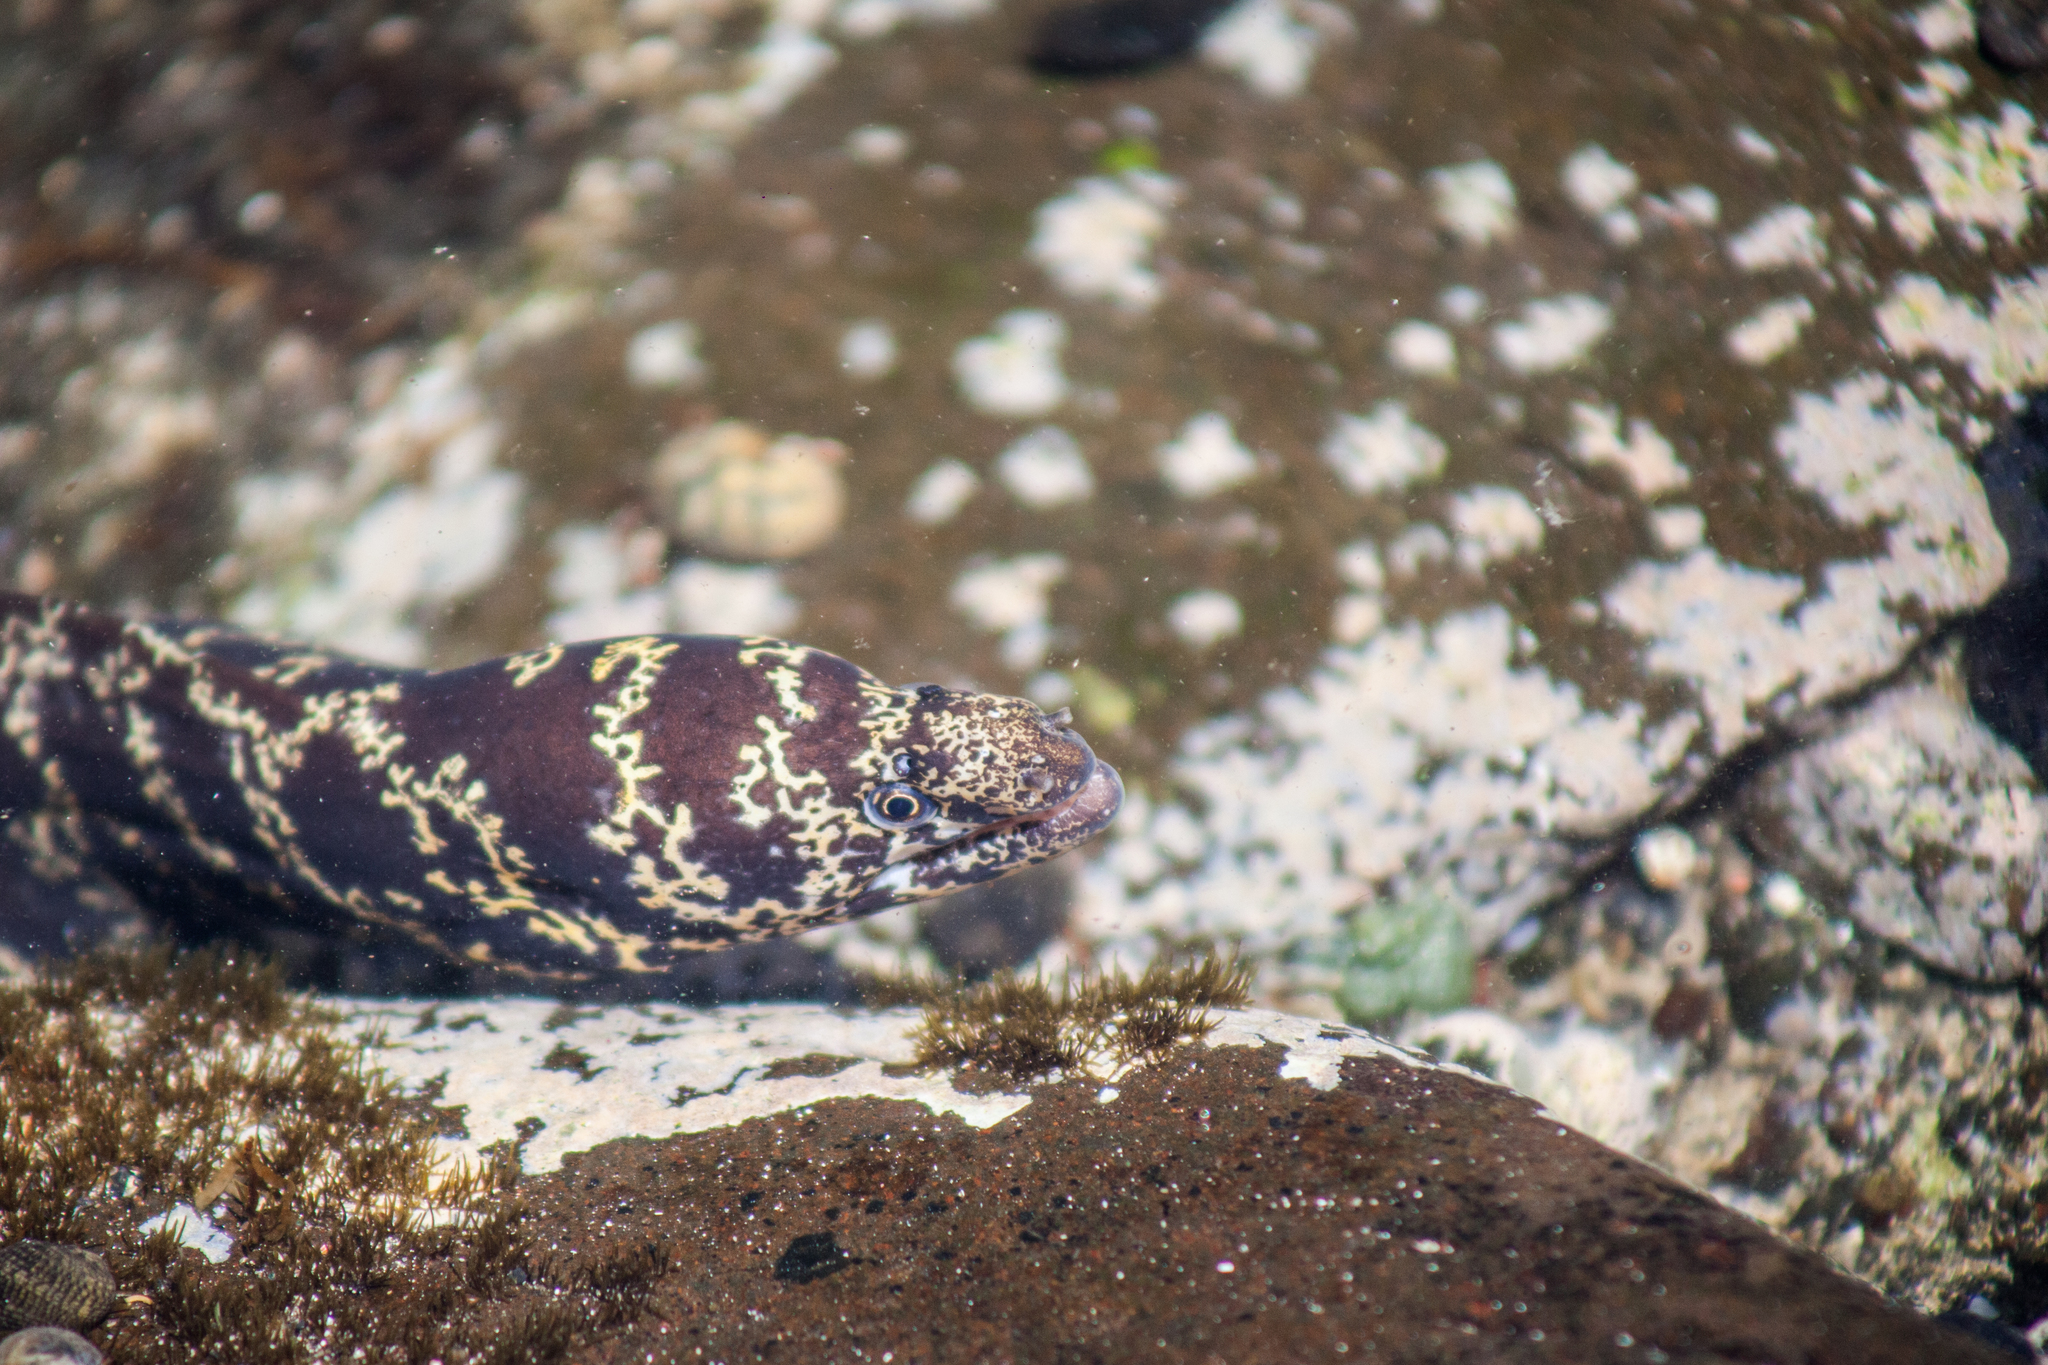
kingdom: Animalia
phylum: Chordata
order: Anguilliformes
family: Muraenidae
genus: Echidna
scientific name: Echidna catenata
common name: Chain moray
